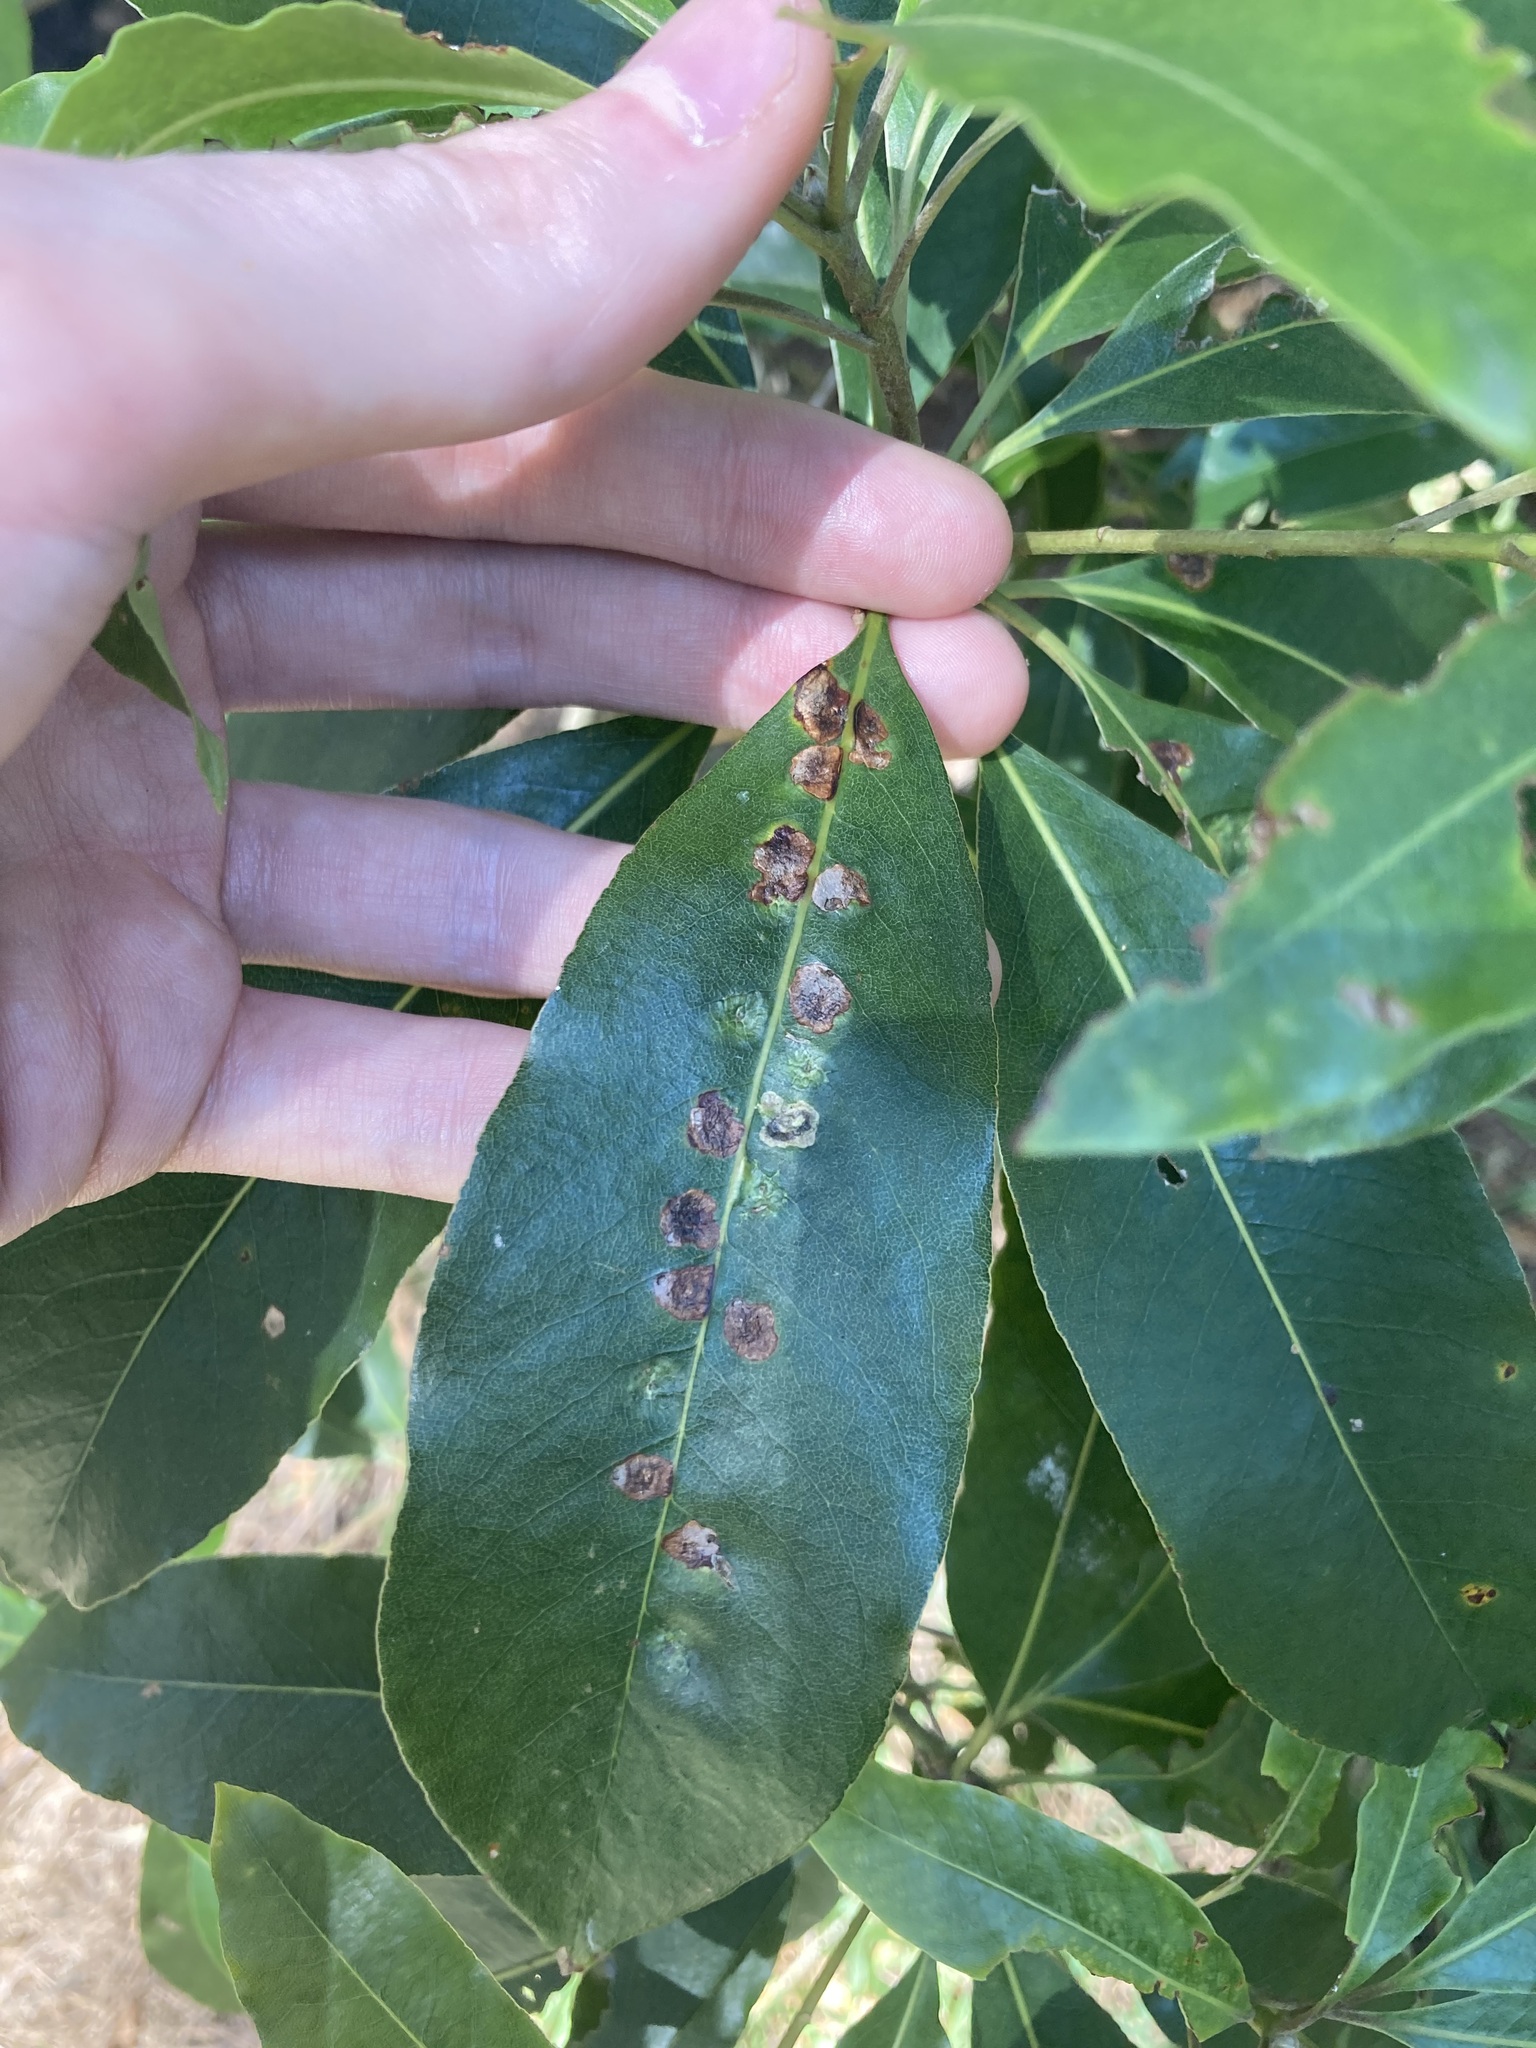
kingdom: Animalia
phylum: Arthropoda
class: Insecta
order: Diptera
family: Agromyzidae
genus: Phytoliriomyza
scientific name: Phytoliriomyza pittosporophylli
